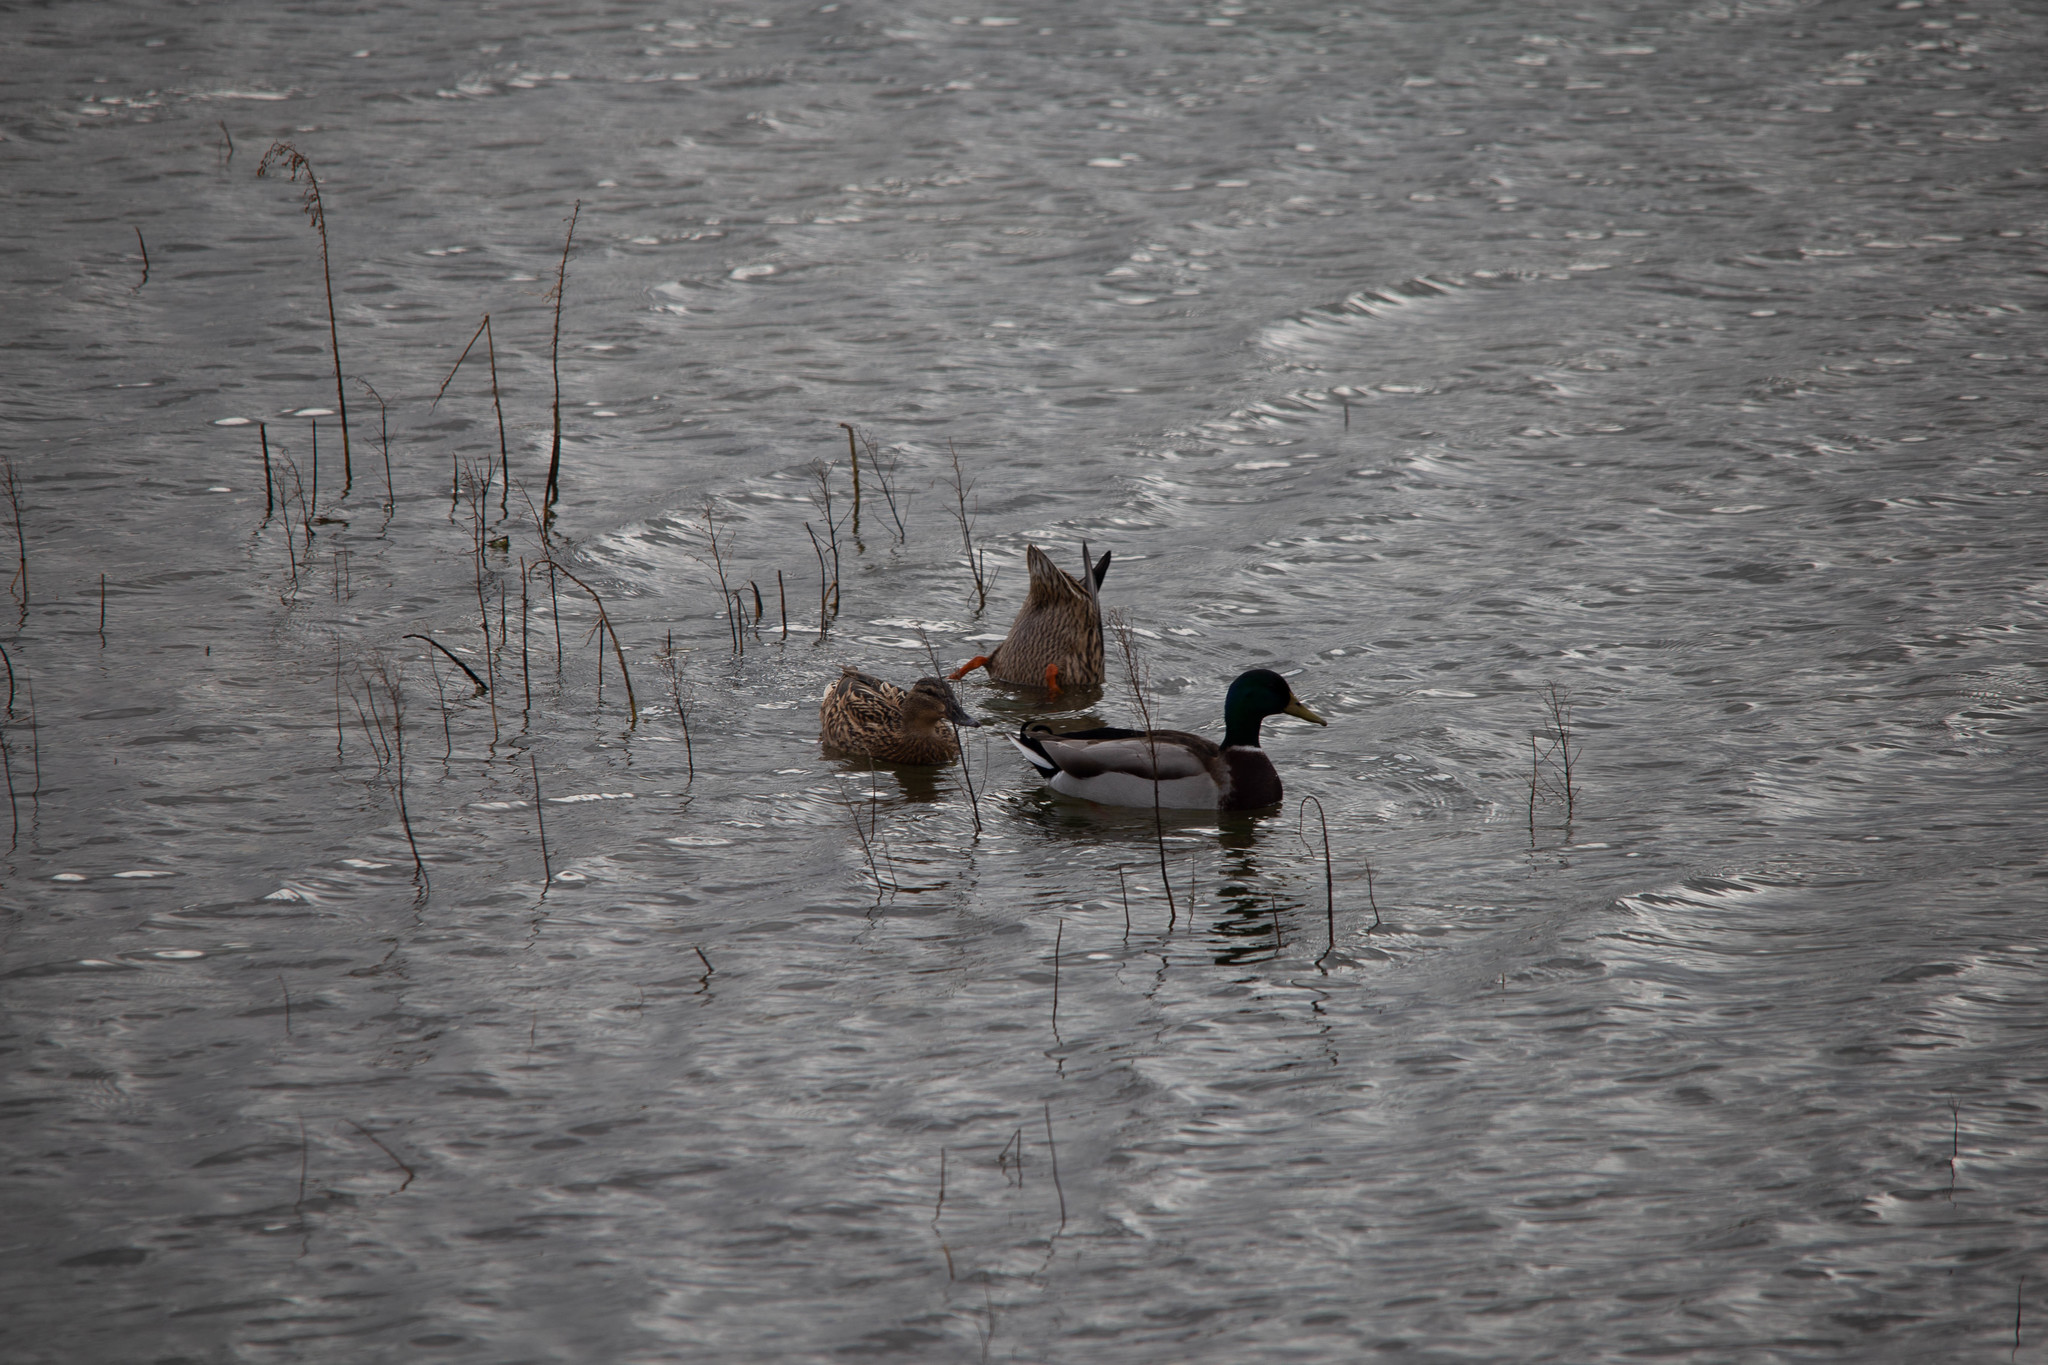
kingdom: Animalia
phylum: Chordata
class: Aves
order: Anseriformes
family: Anatidae
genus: Anas
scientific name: Anas platyrhynchos
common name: Mallard
